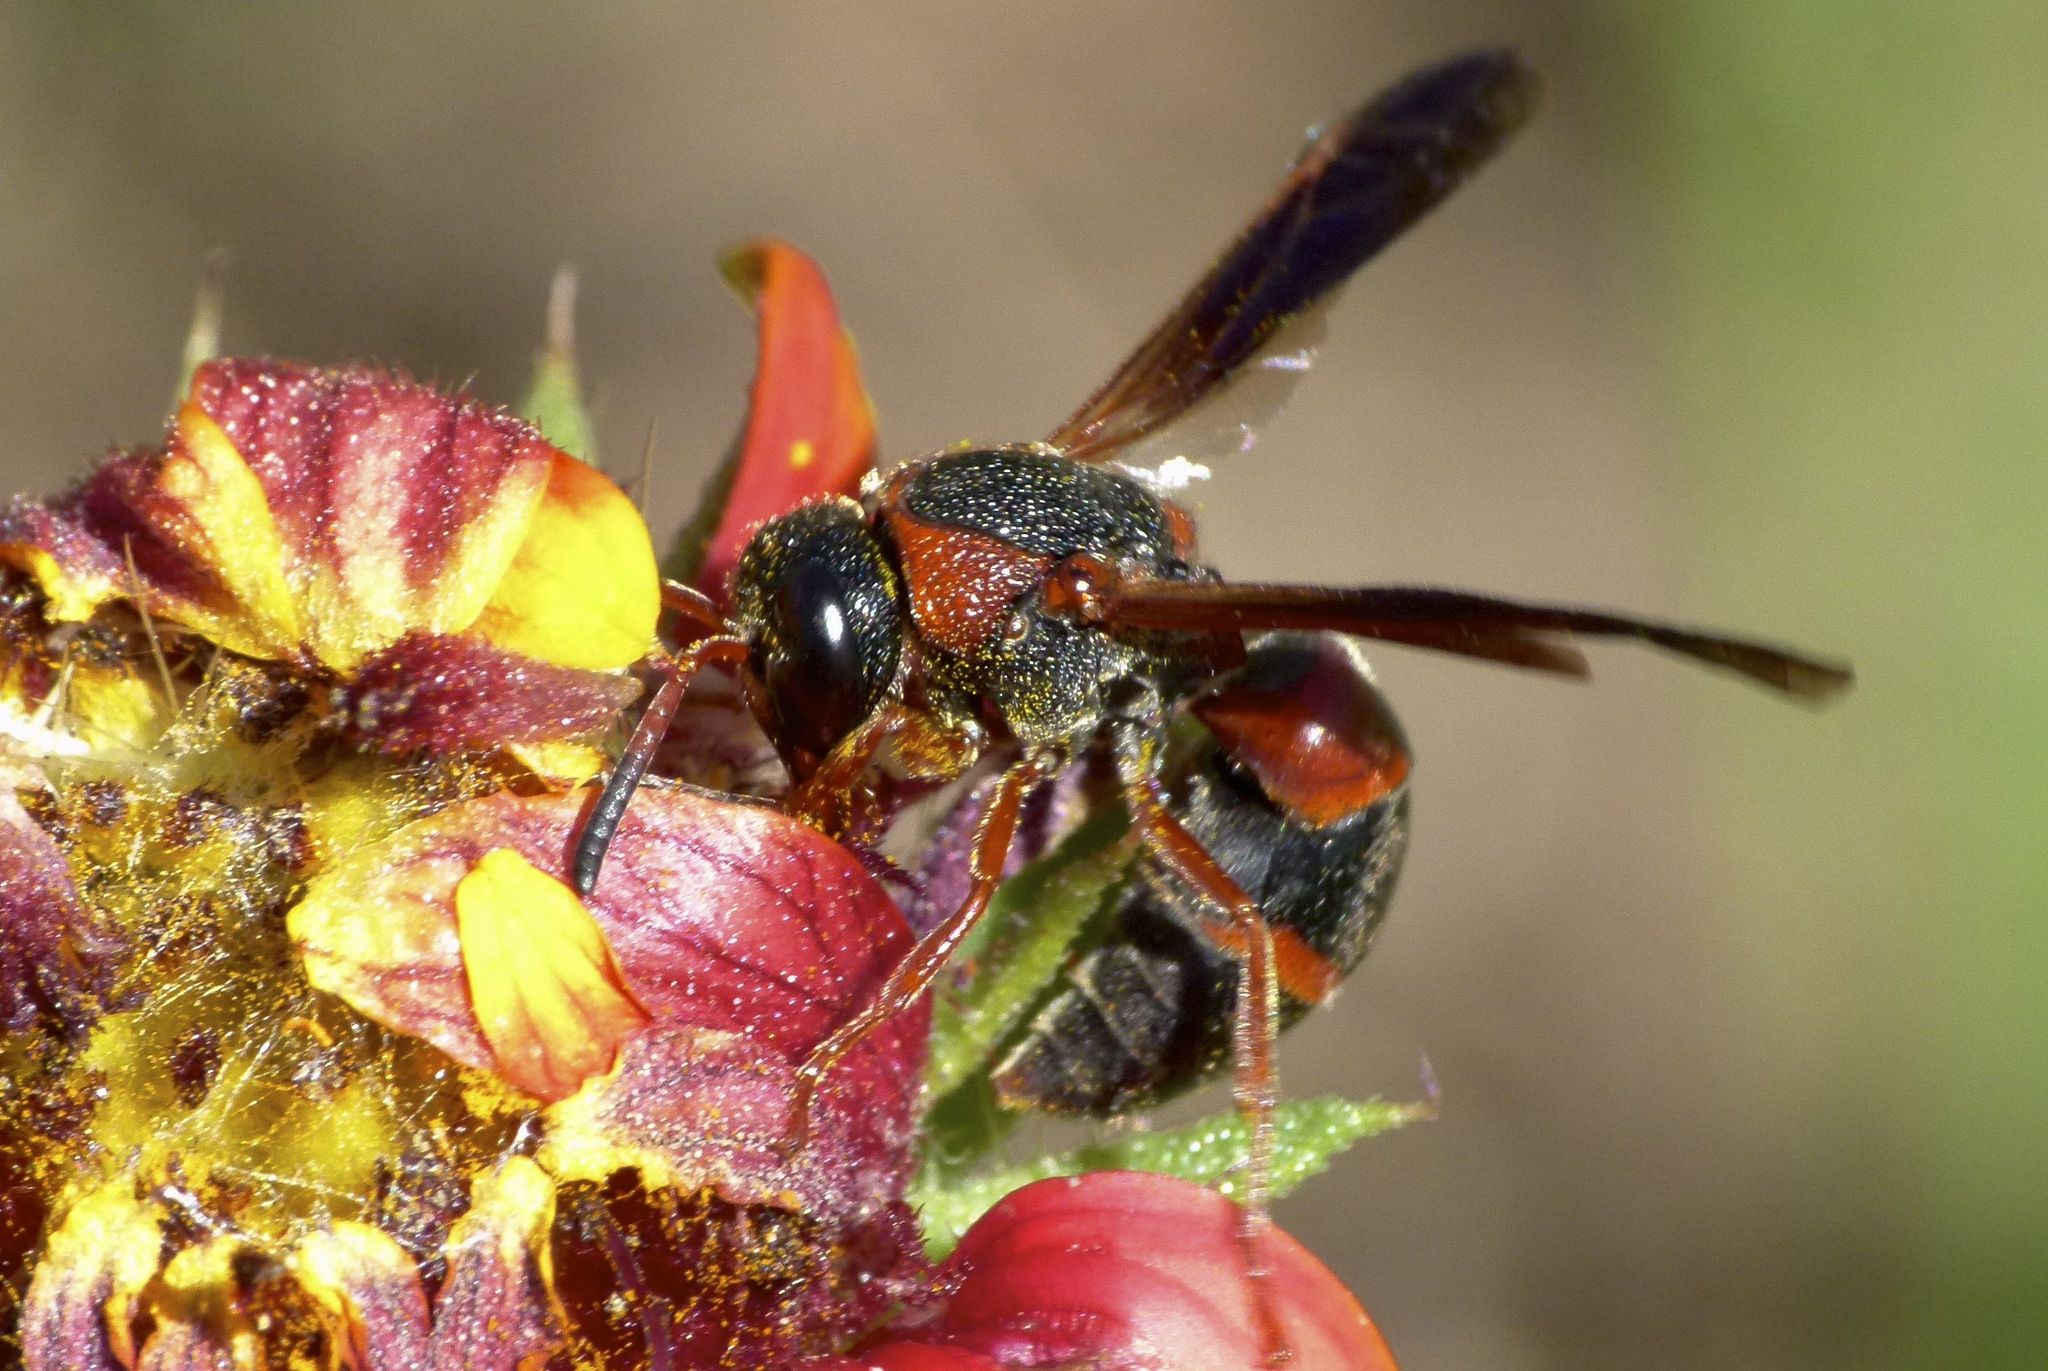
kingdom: Animalia
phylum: Arthropoda
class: Insecta
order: Hymenoptera
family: Eumenidae
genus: Pachodynerus
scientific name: Pachodynerus erynnis
